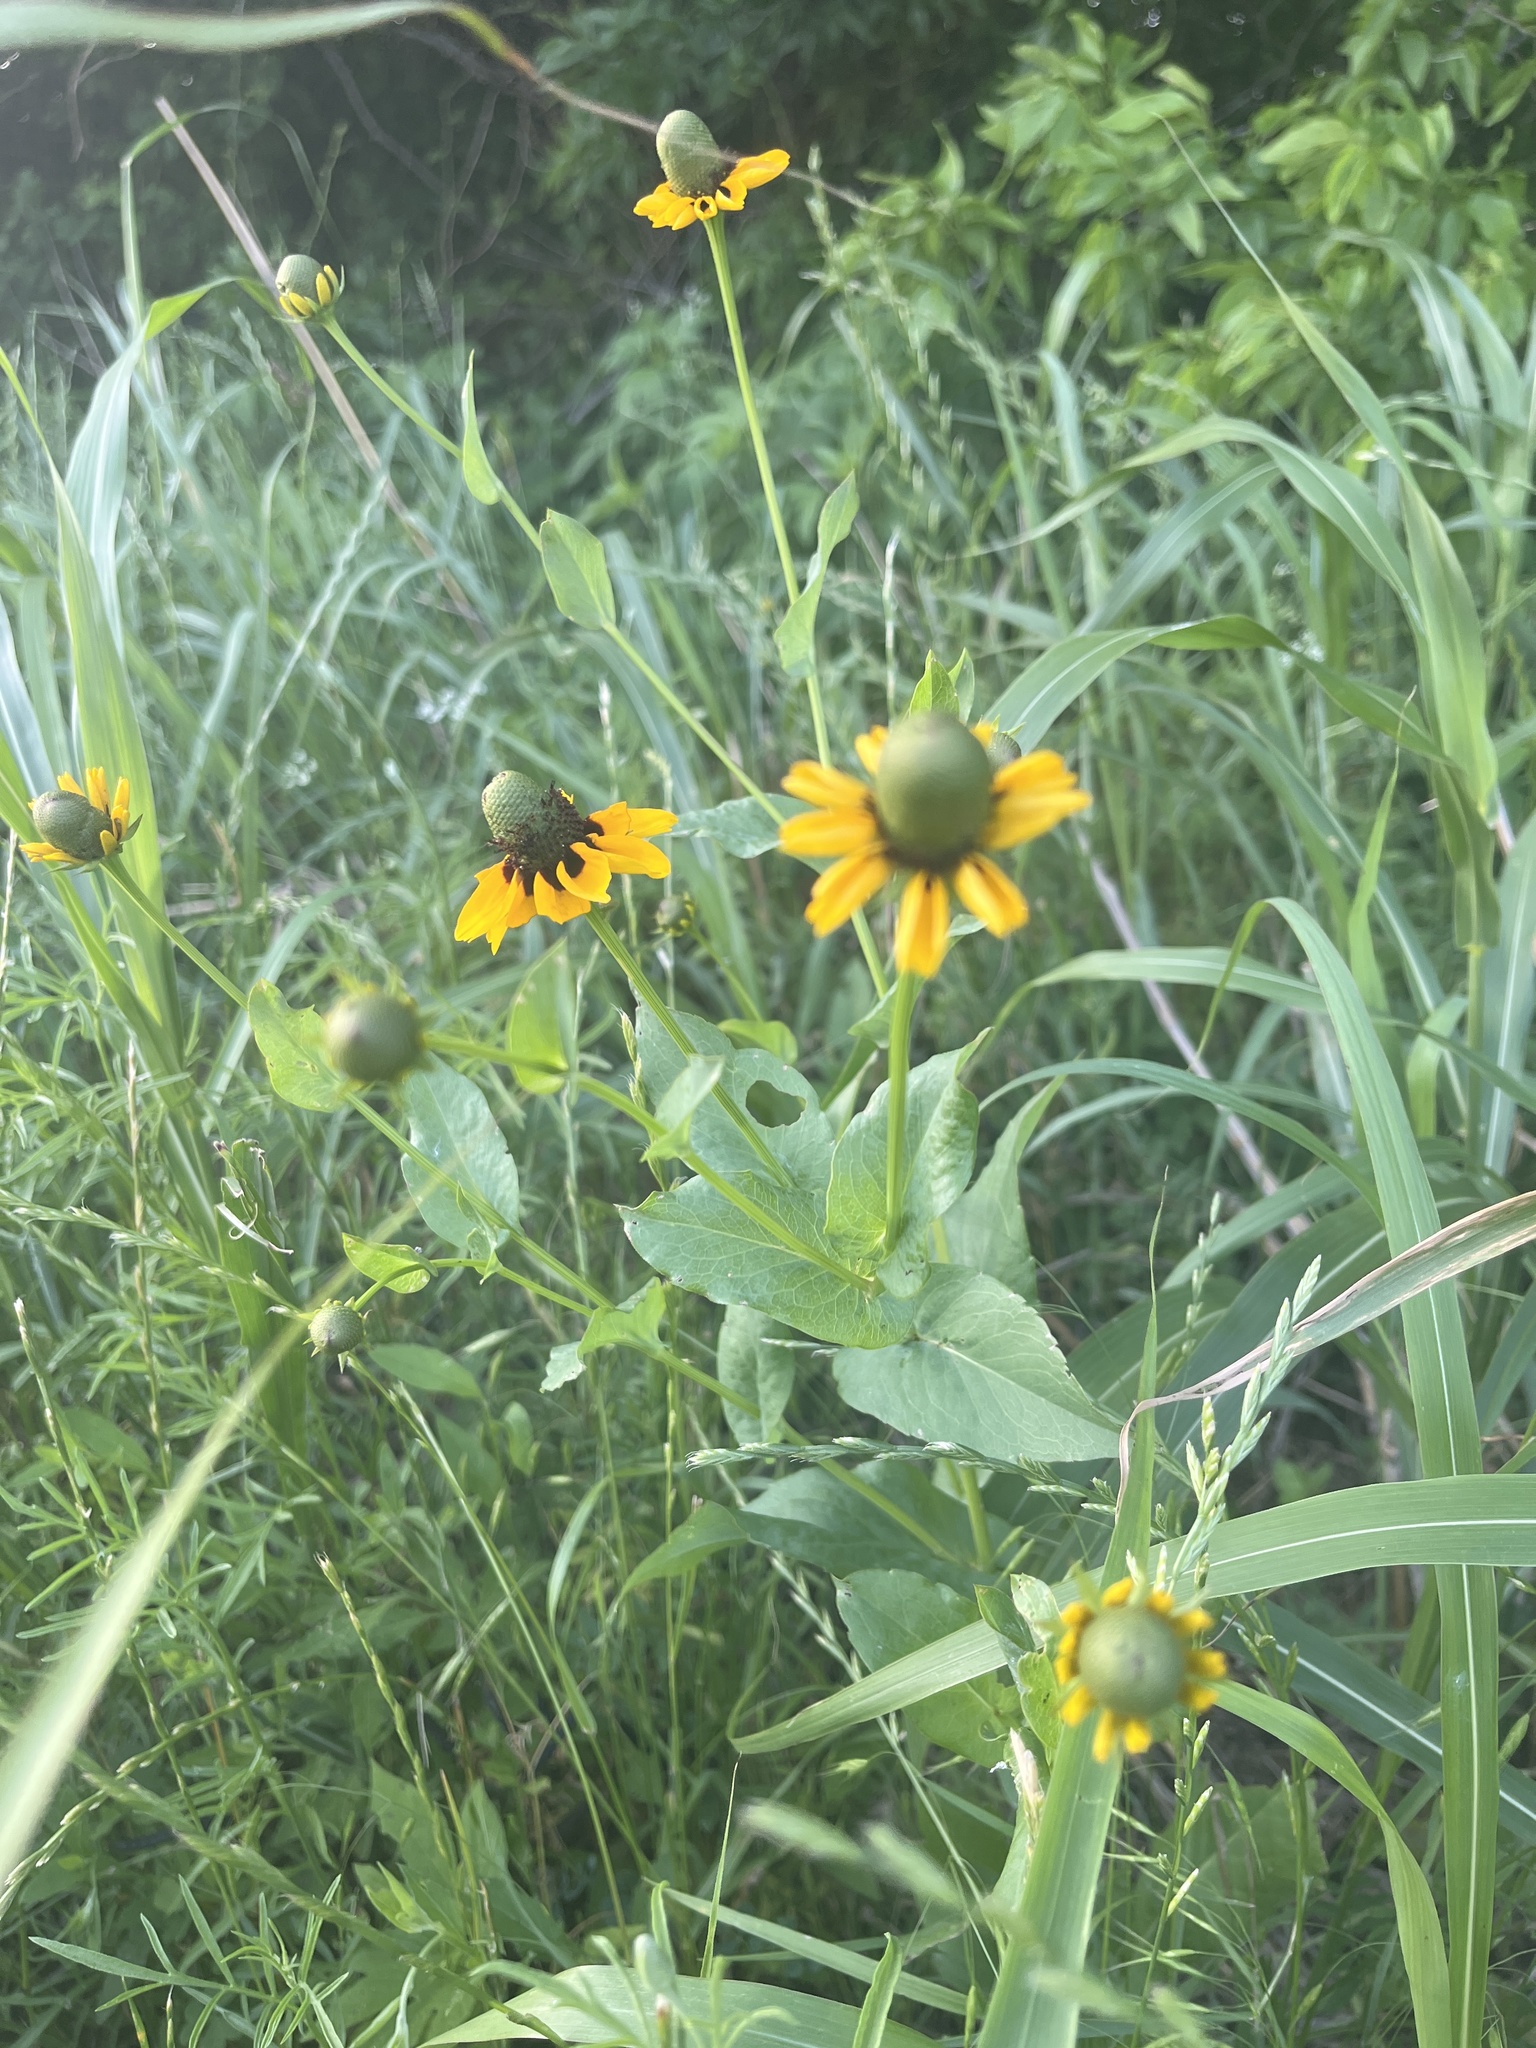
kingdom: Plantae
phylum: Tracheophyta
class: Magnoliopsida
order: Asterales
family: Asteraceae
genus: Rudbeckia
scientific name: Rudbeckia amplexicaulis
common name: Clasping-leaf coneflower
